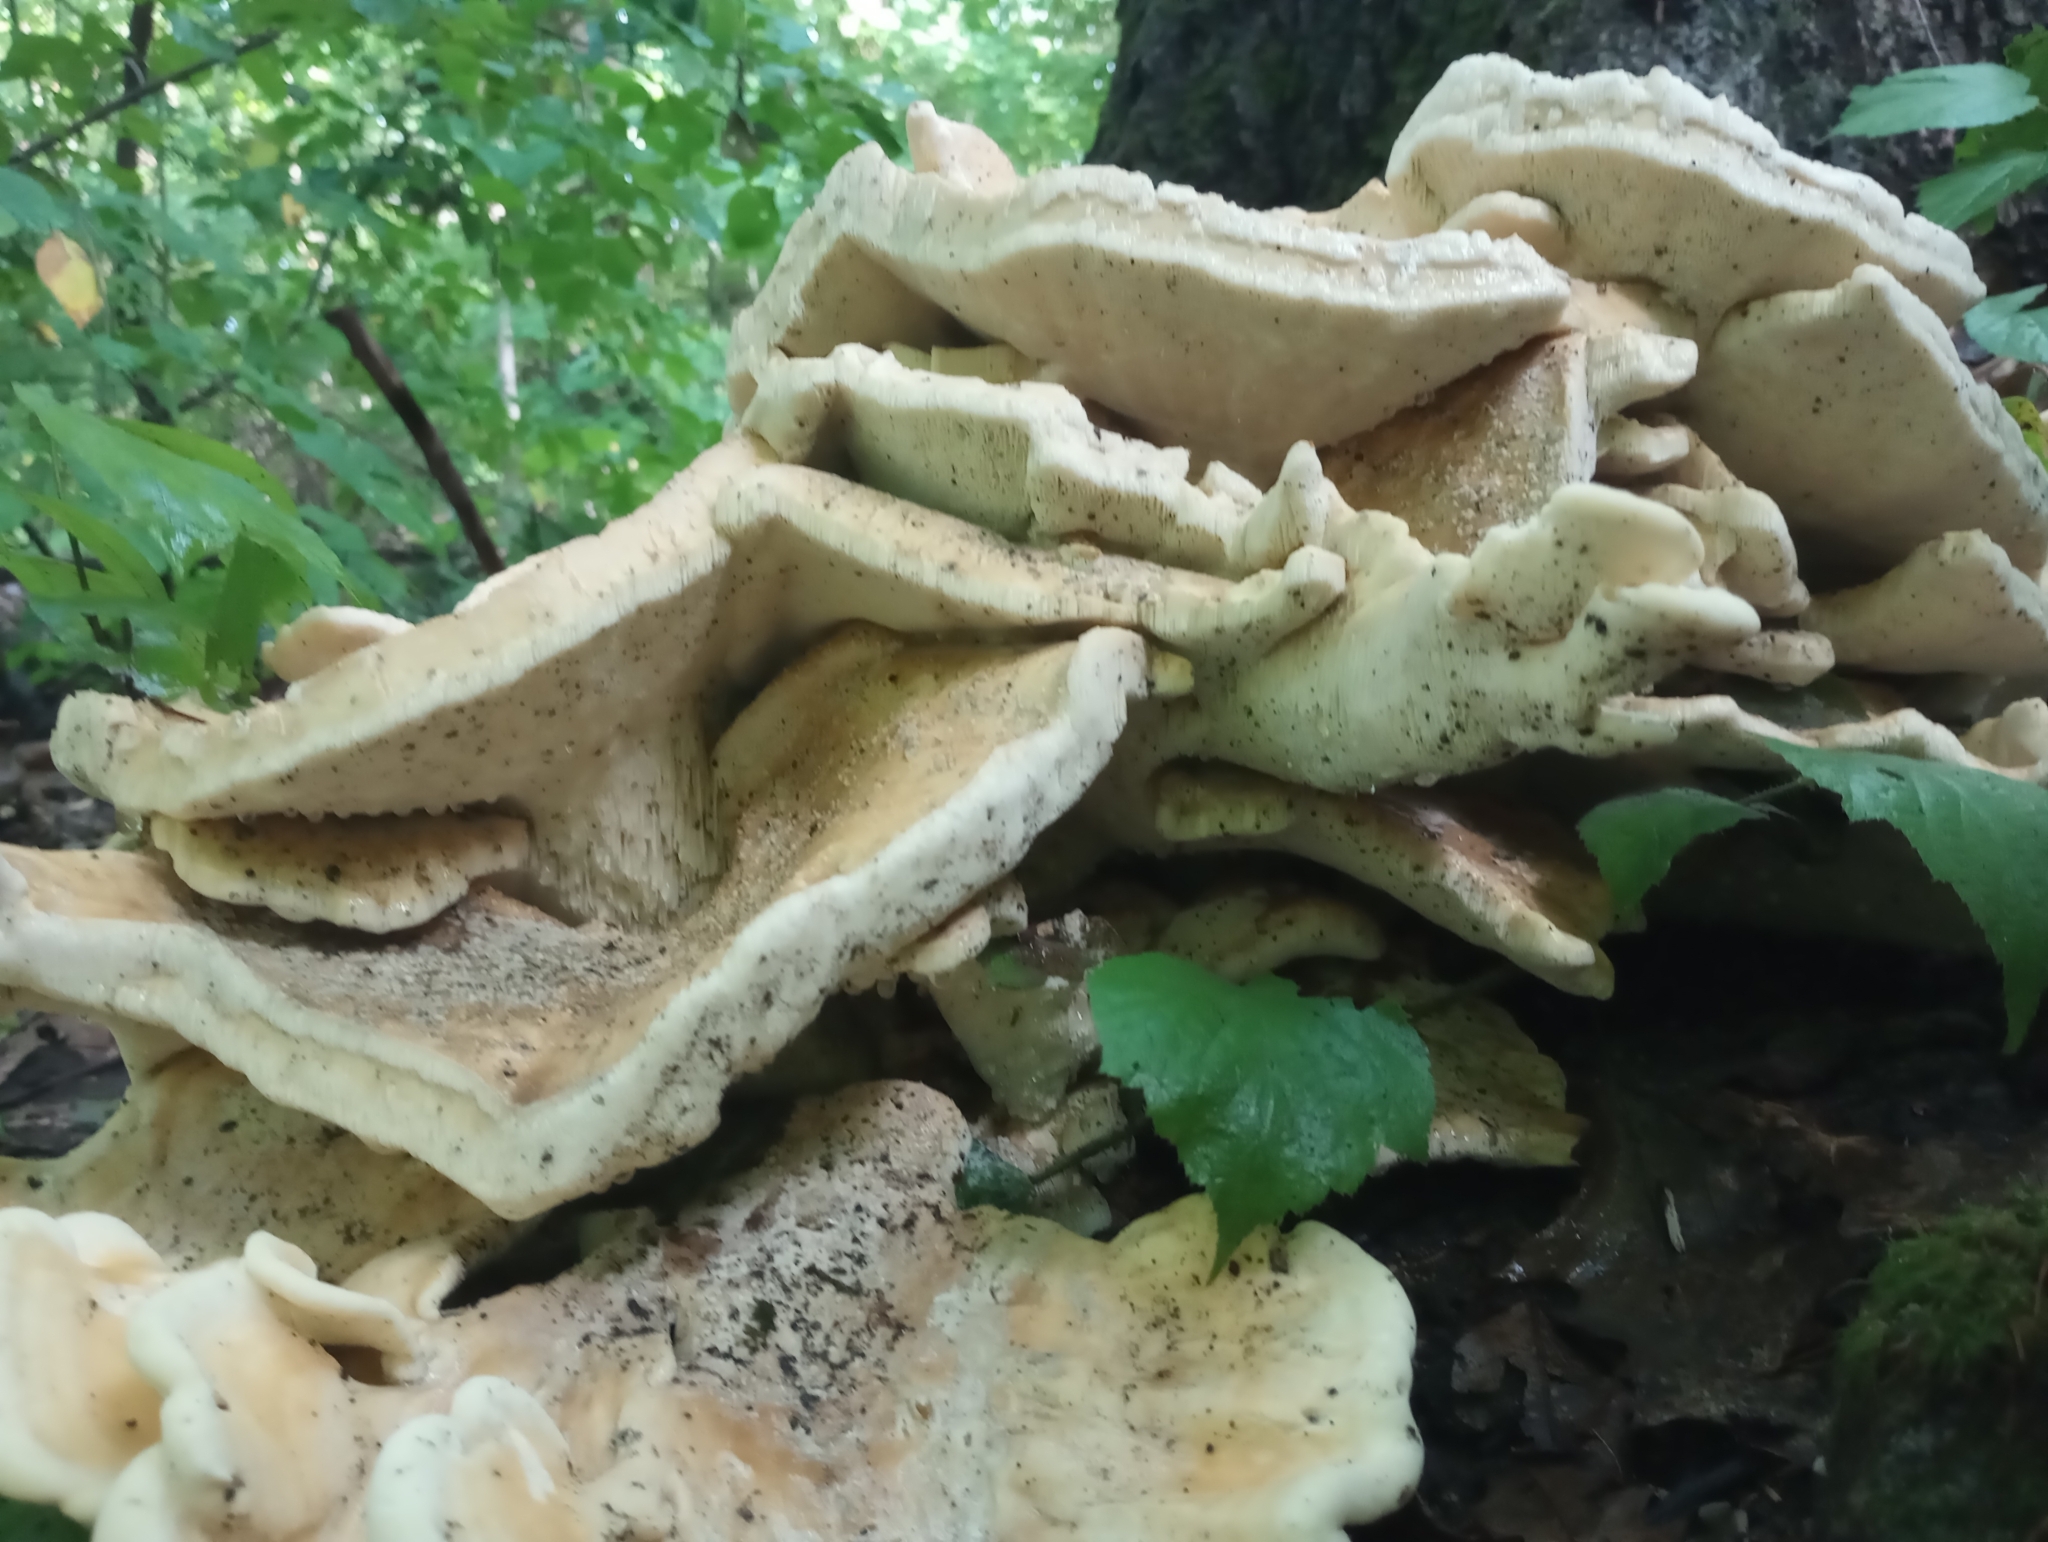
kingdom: Fungi
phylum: Basidiomycota
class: Agaricomycetes
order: Russulales
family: Bondarzewiaceae
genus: Bondarzewia
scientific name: Bondarzewia berkeleyi
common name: Berkeley's polypore
